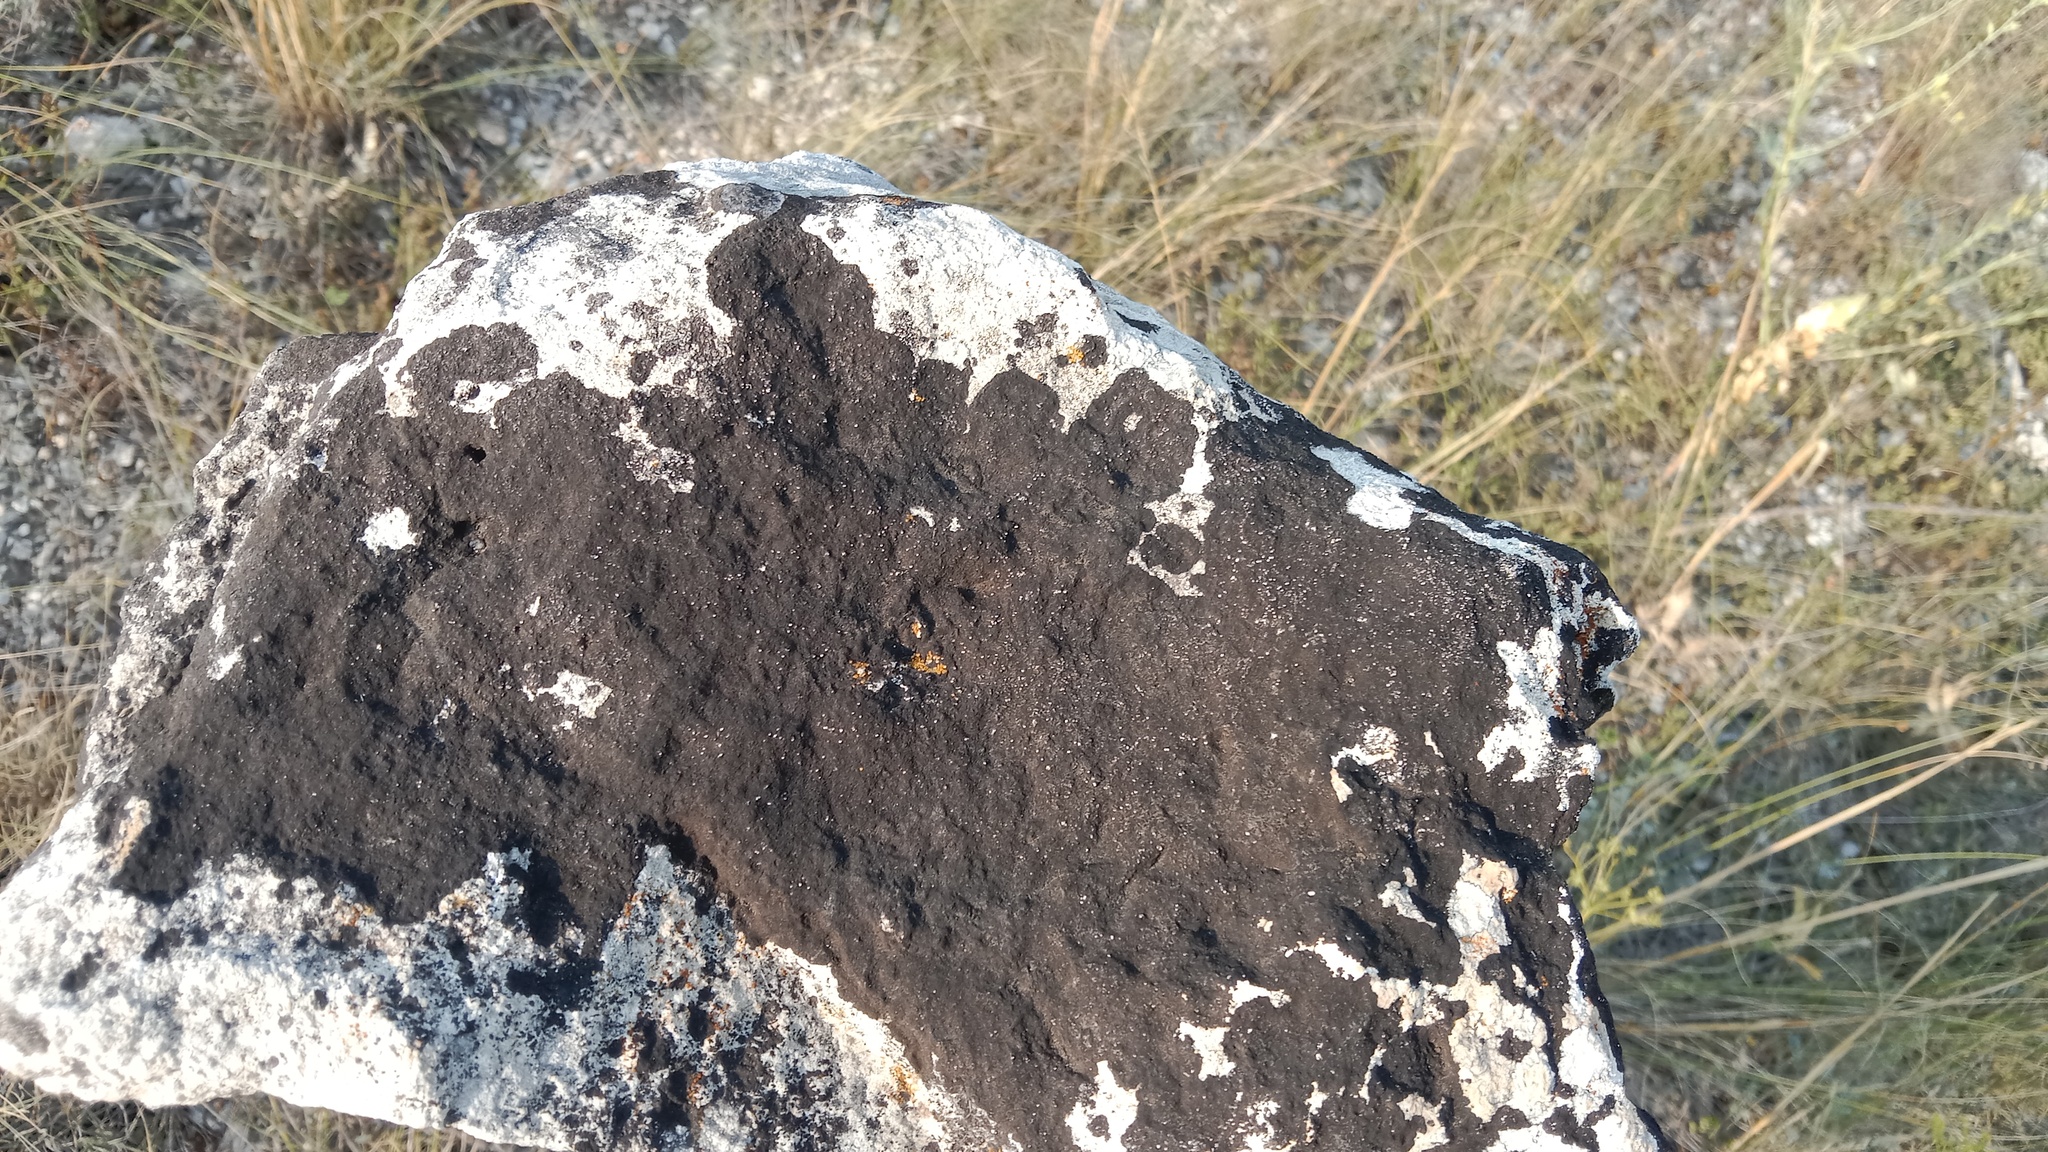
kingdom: Fungi
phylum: Ascomycota
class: Eurotiomycetes
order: Verrucariales
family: Verrucariaceae
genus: Verrucaria
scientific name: Verrucaria nigrescens
